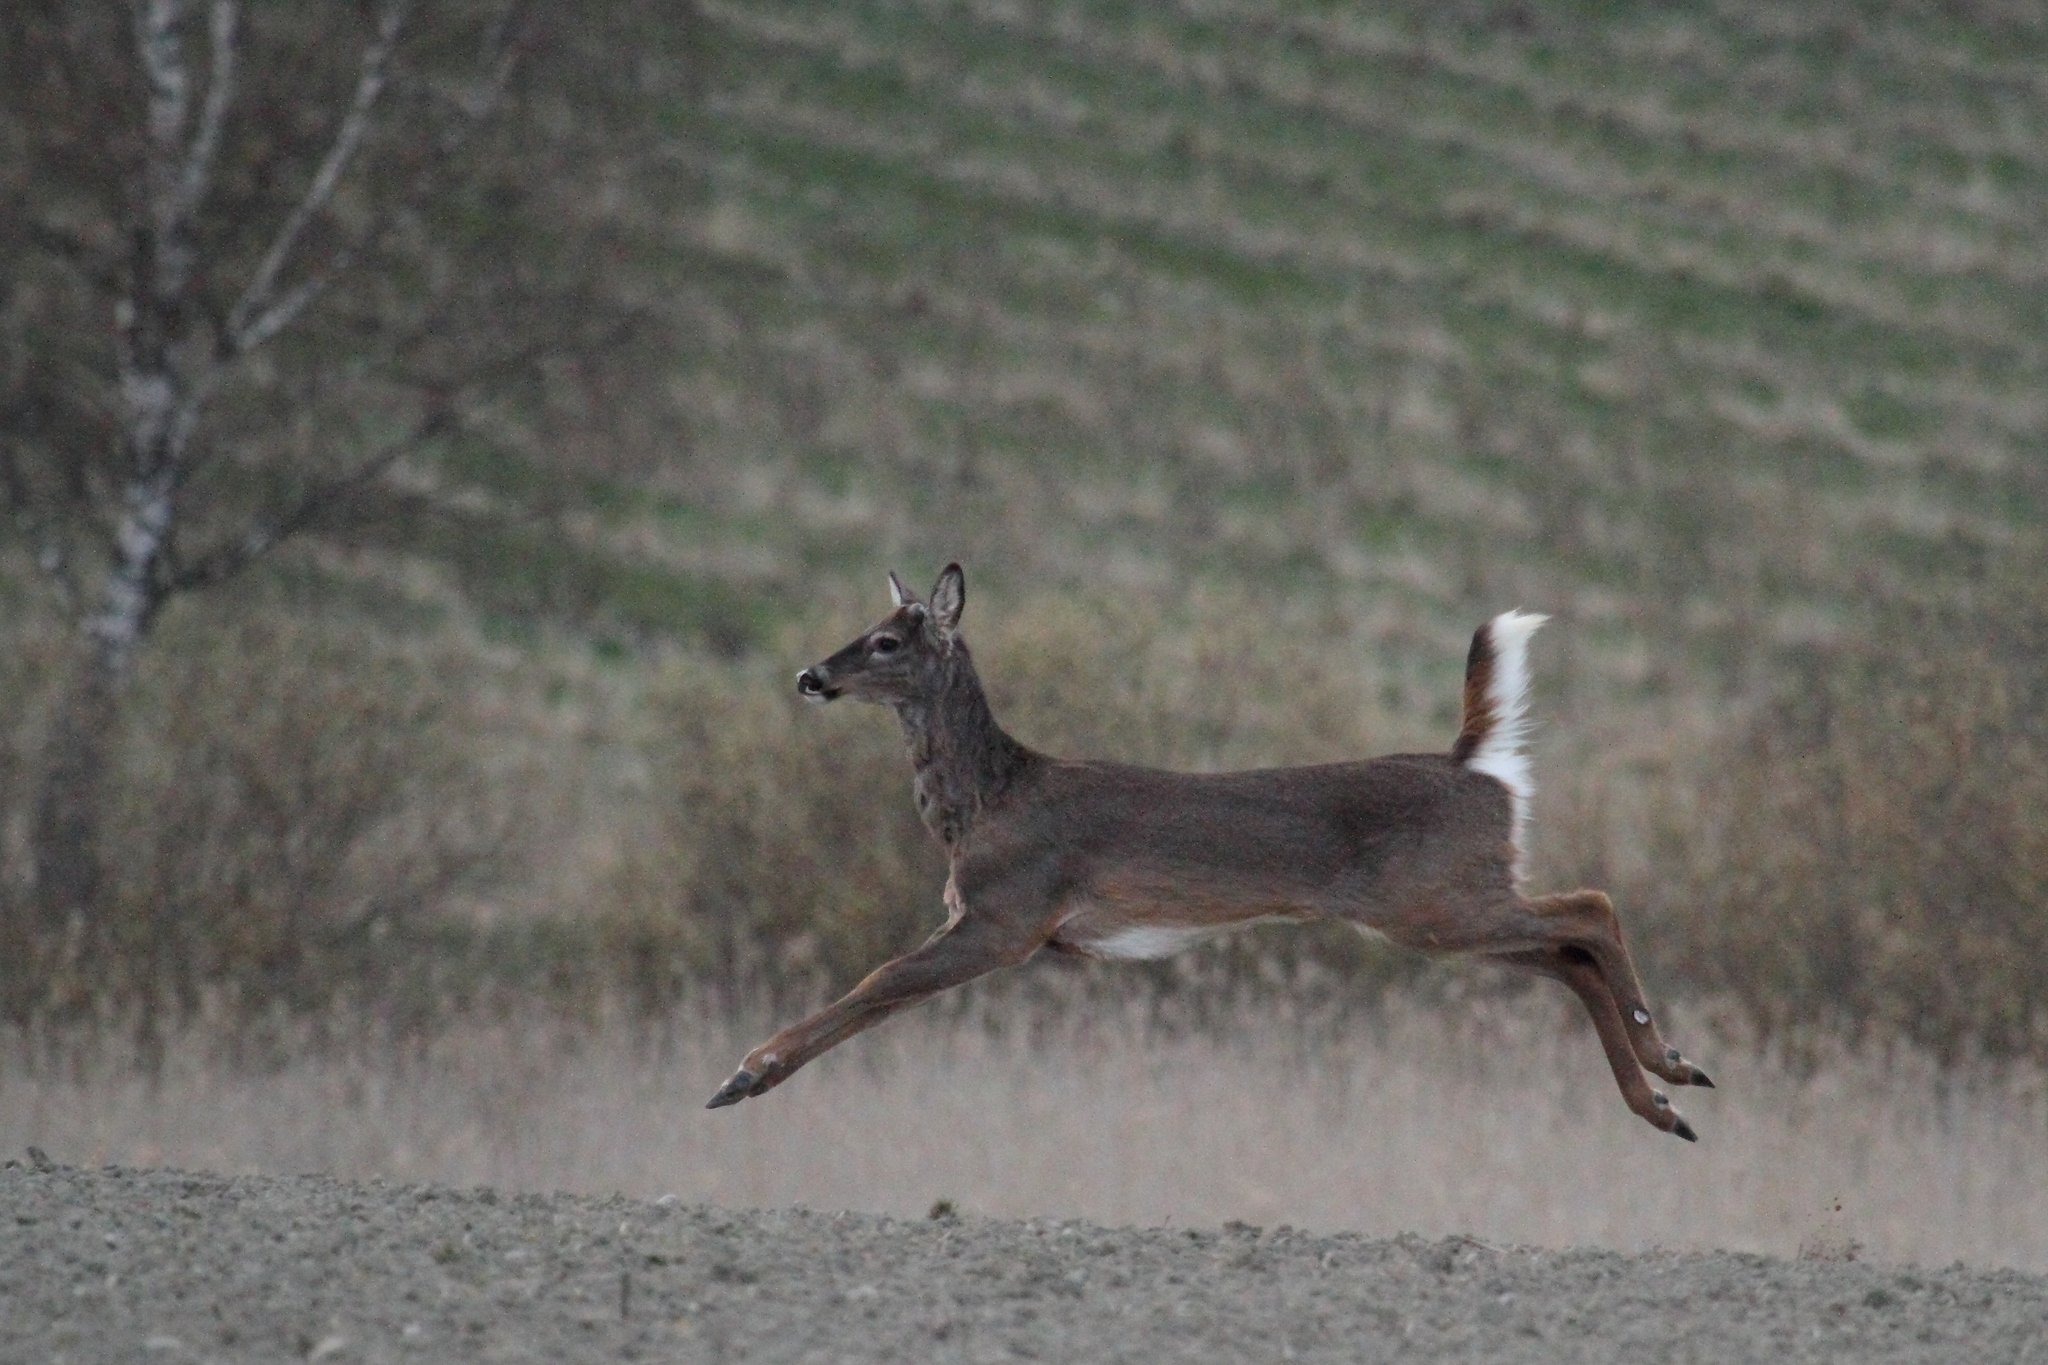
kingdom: Animalia
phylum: Chordata
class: Mammalia
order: Artiodactyla
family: Cervidae
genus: Odocoileus
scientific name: Odocoileus virginianus
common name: White-tailed deer
